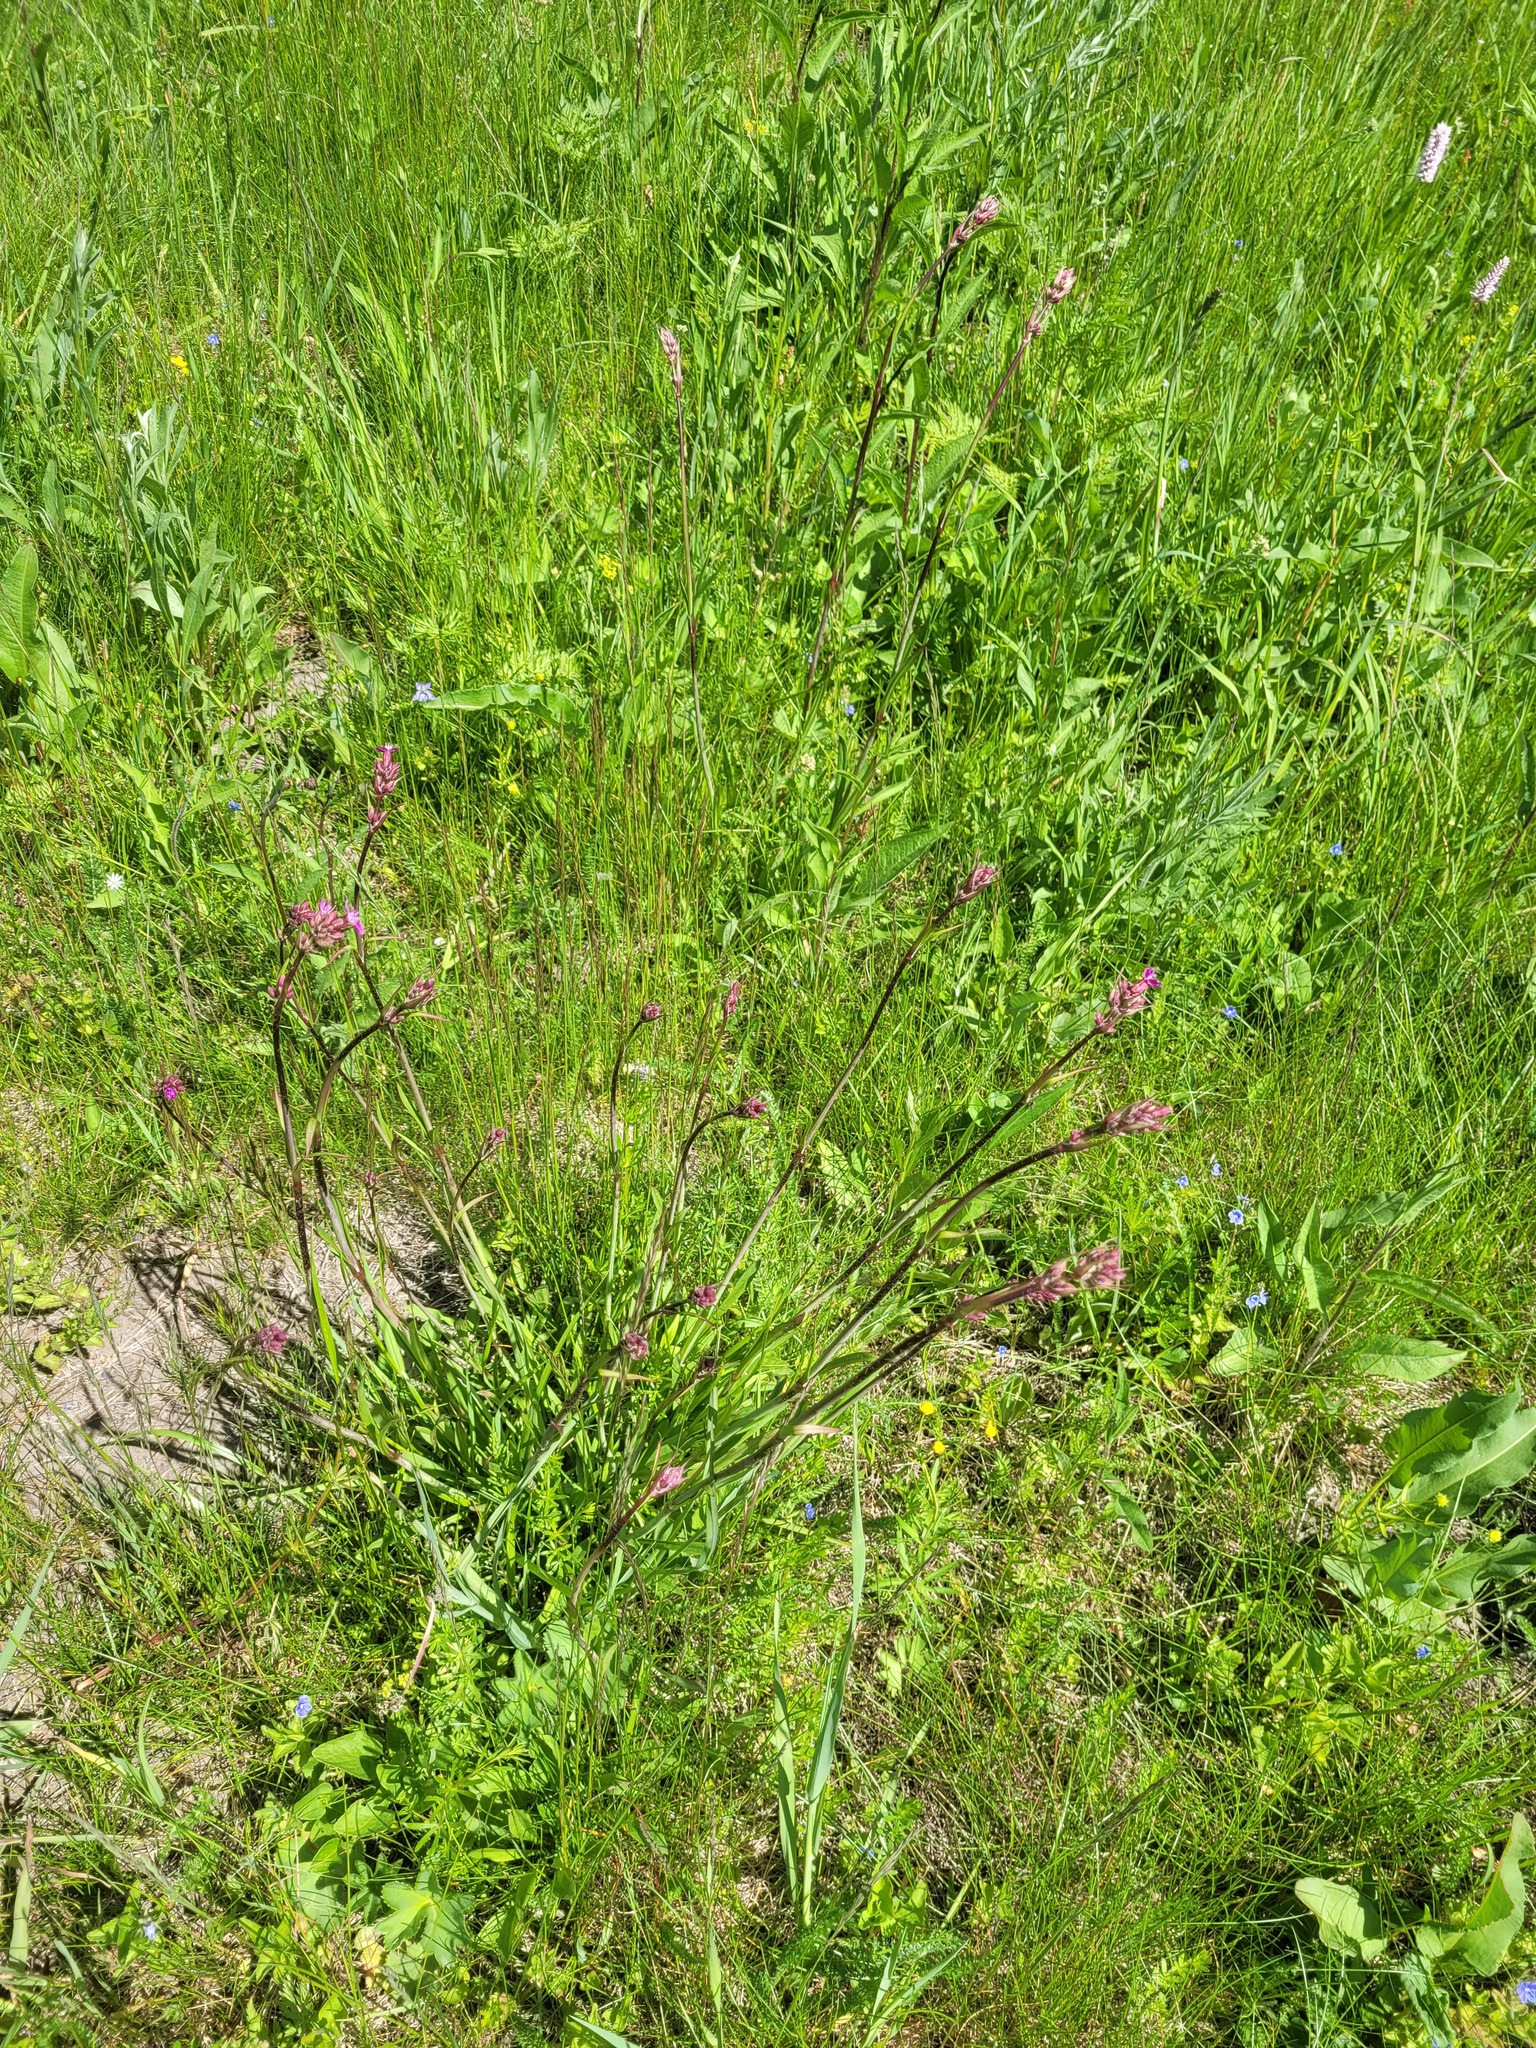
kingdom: Plantae
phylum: Tracheophyta
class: Magnoliopsida
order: Caryophyllales
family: Caryophyllaceae
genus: Viscaria
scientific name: Viscaria vulgaris
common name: Clammy campion
